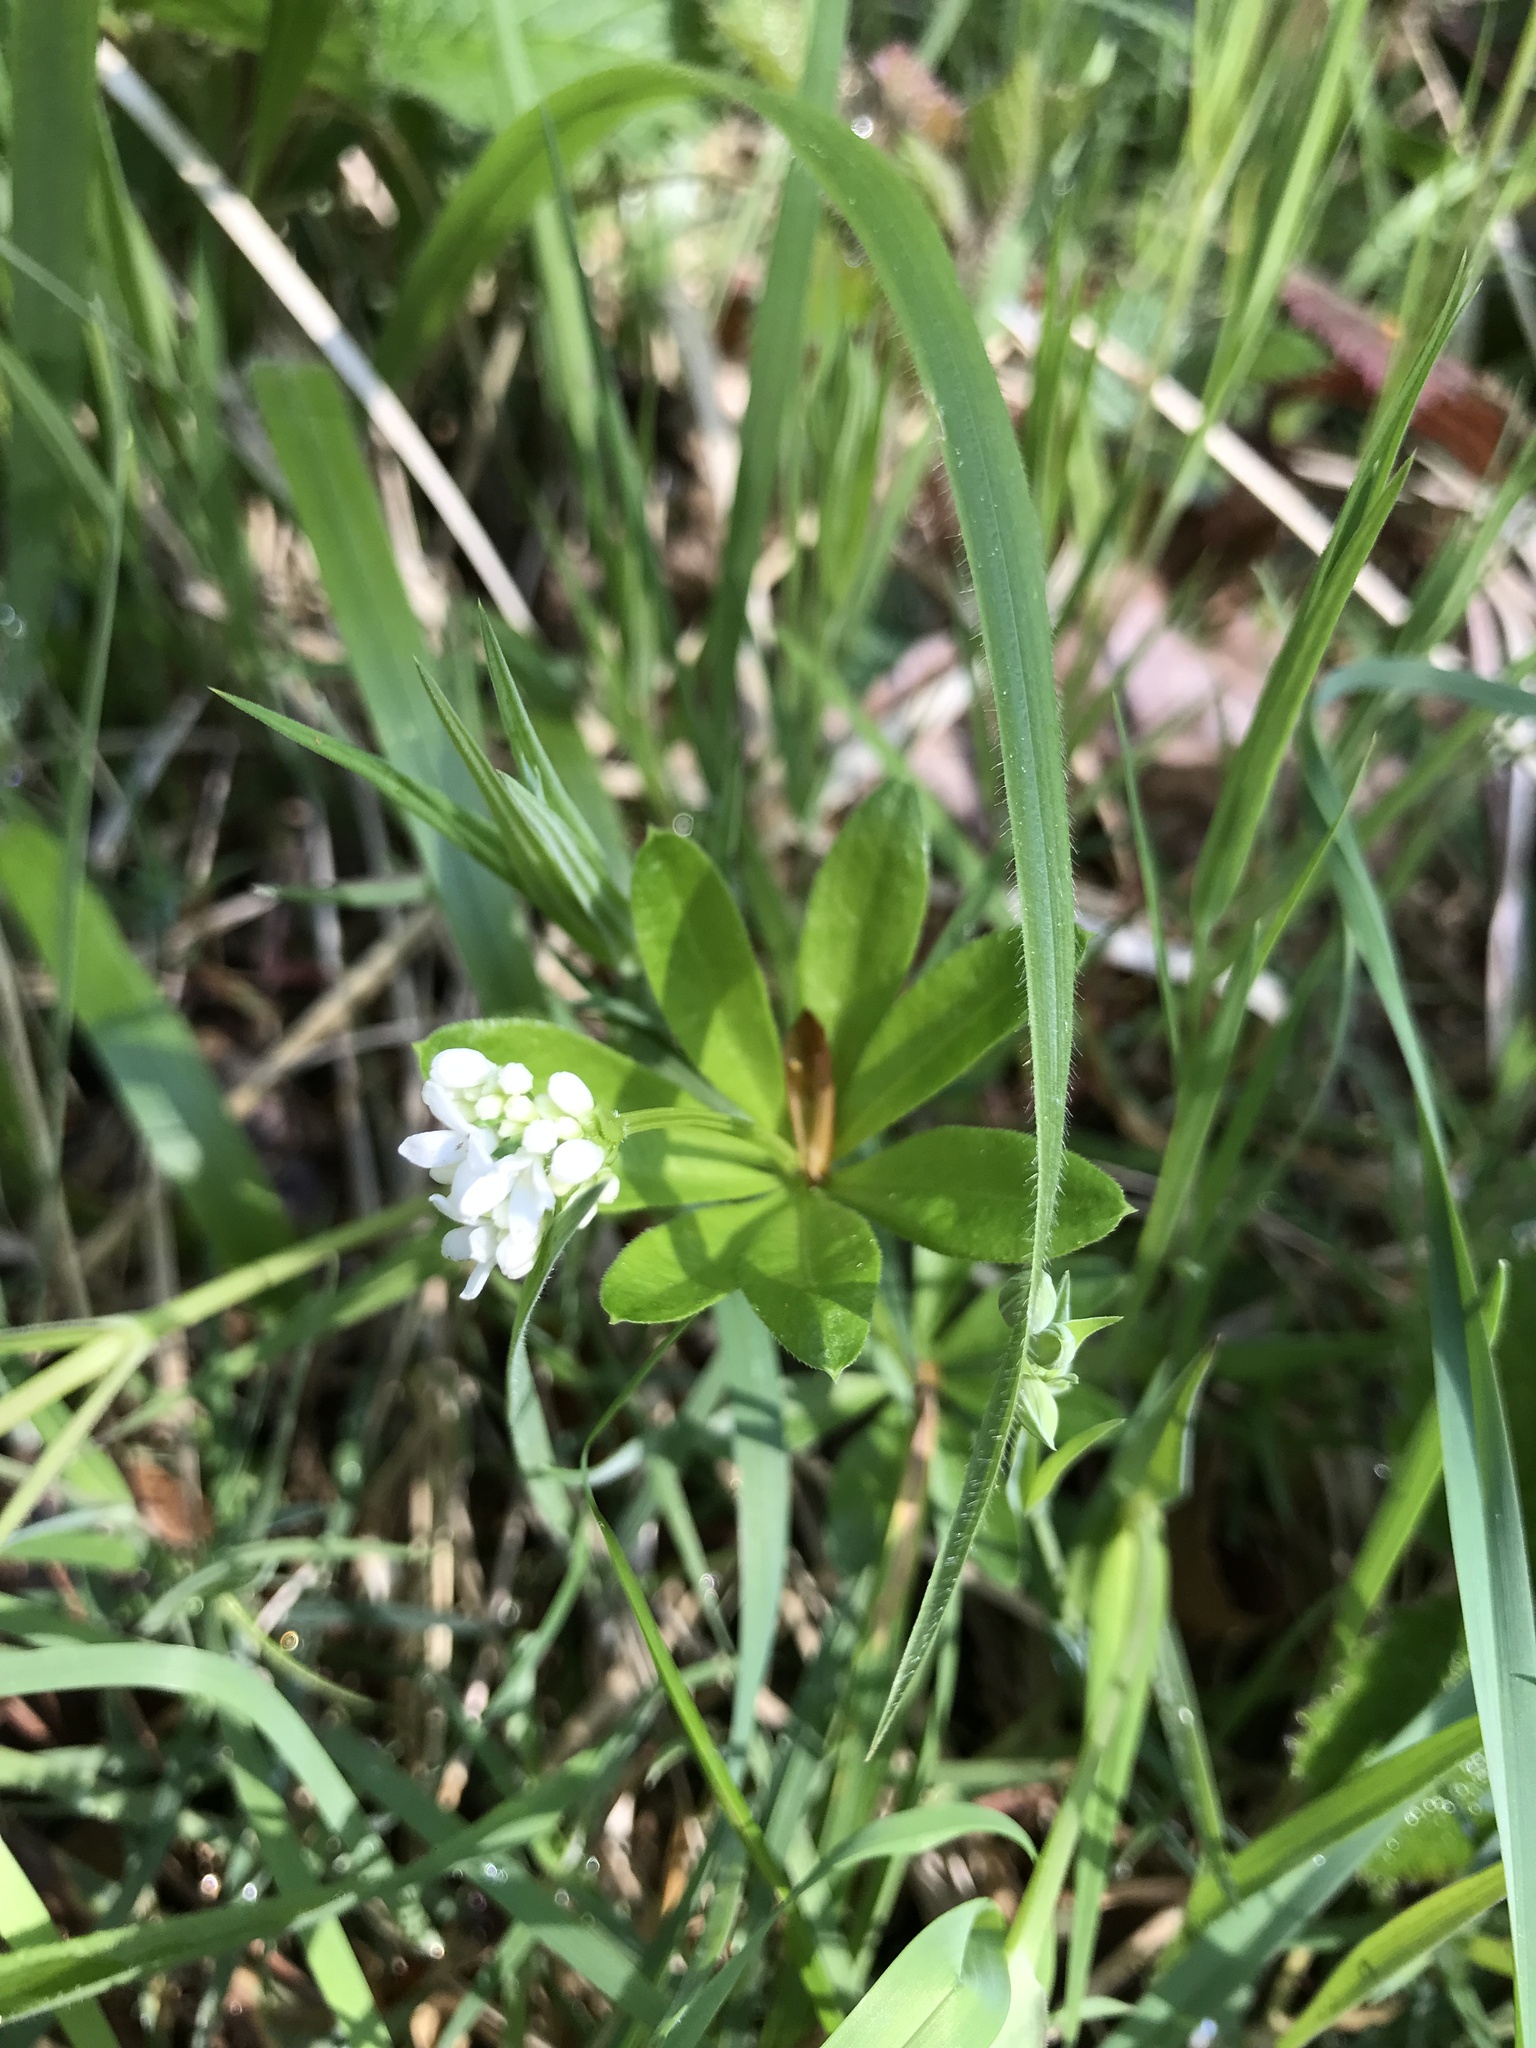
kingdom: Plantae
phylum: Tracheophyta
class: Magnoliopsida
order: Gentianales
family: Rubiaceae
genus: Galium
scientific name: Galium odoratum
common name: Sweet woodruff
